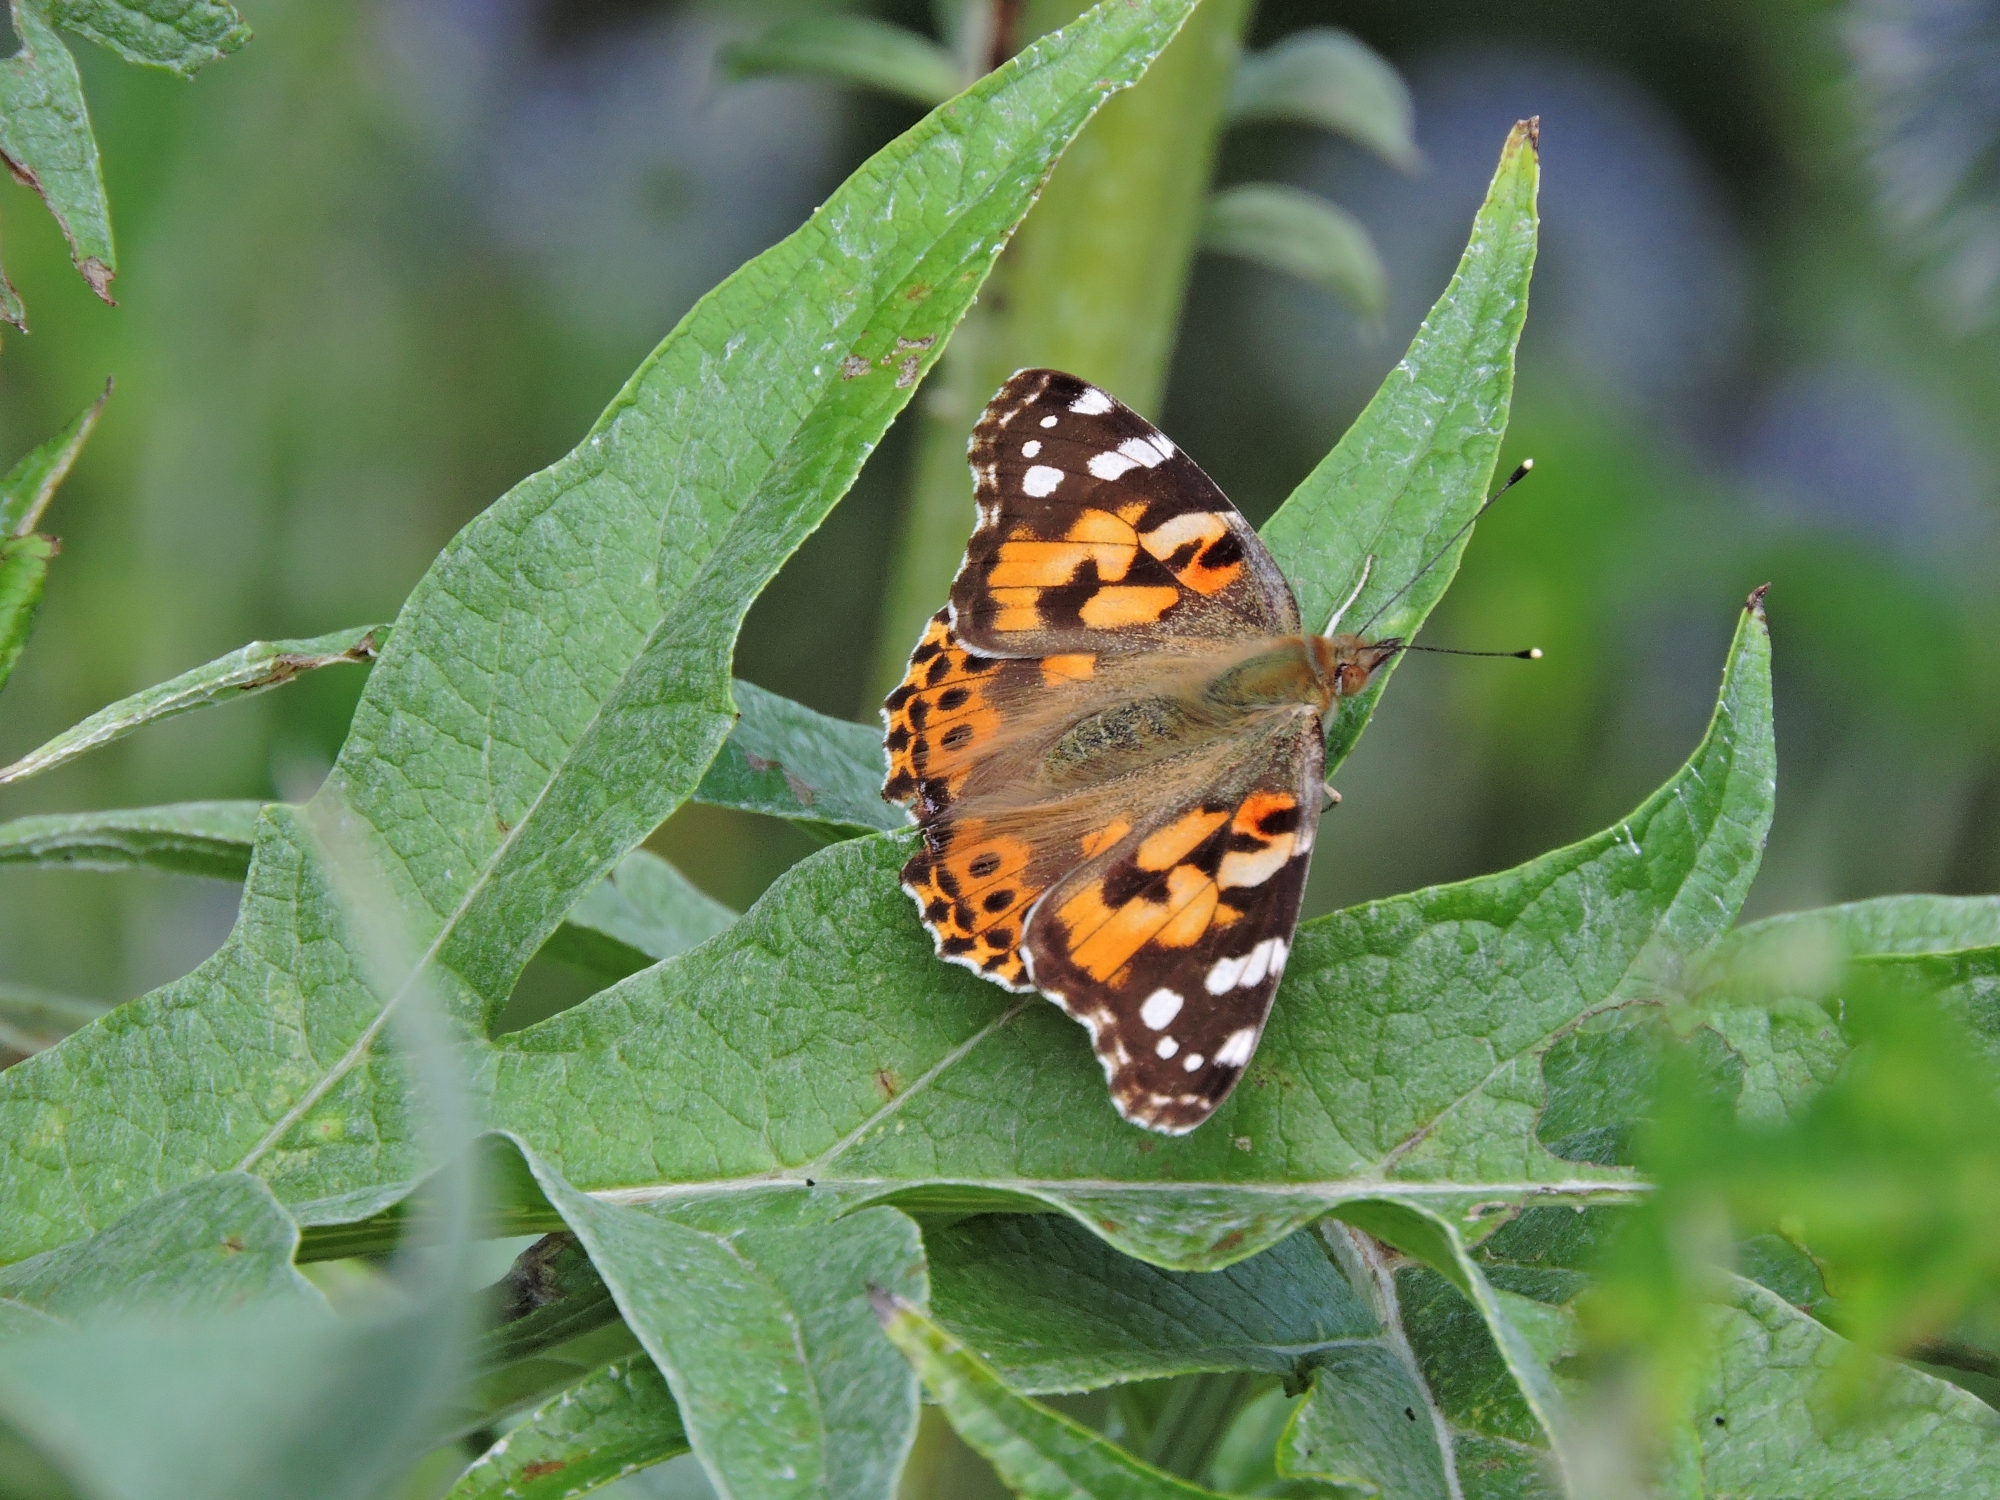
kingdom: Animalia
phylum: Arthropoda
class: Insecta
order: Lepidoptera
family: Nymphalidae
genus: Vanessa
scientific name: Vanessa cardui
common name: Painted lady
